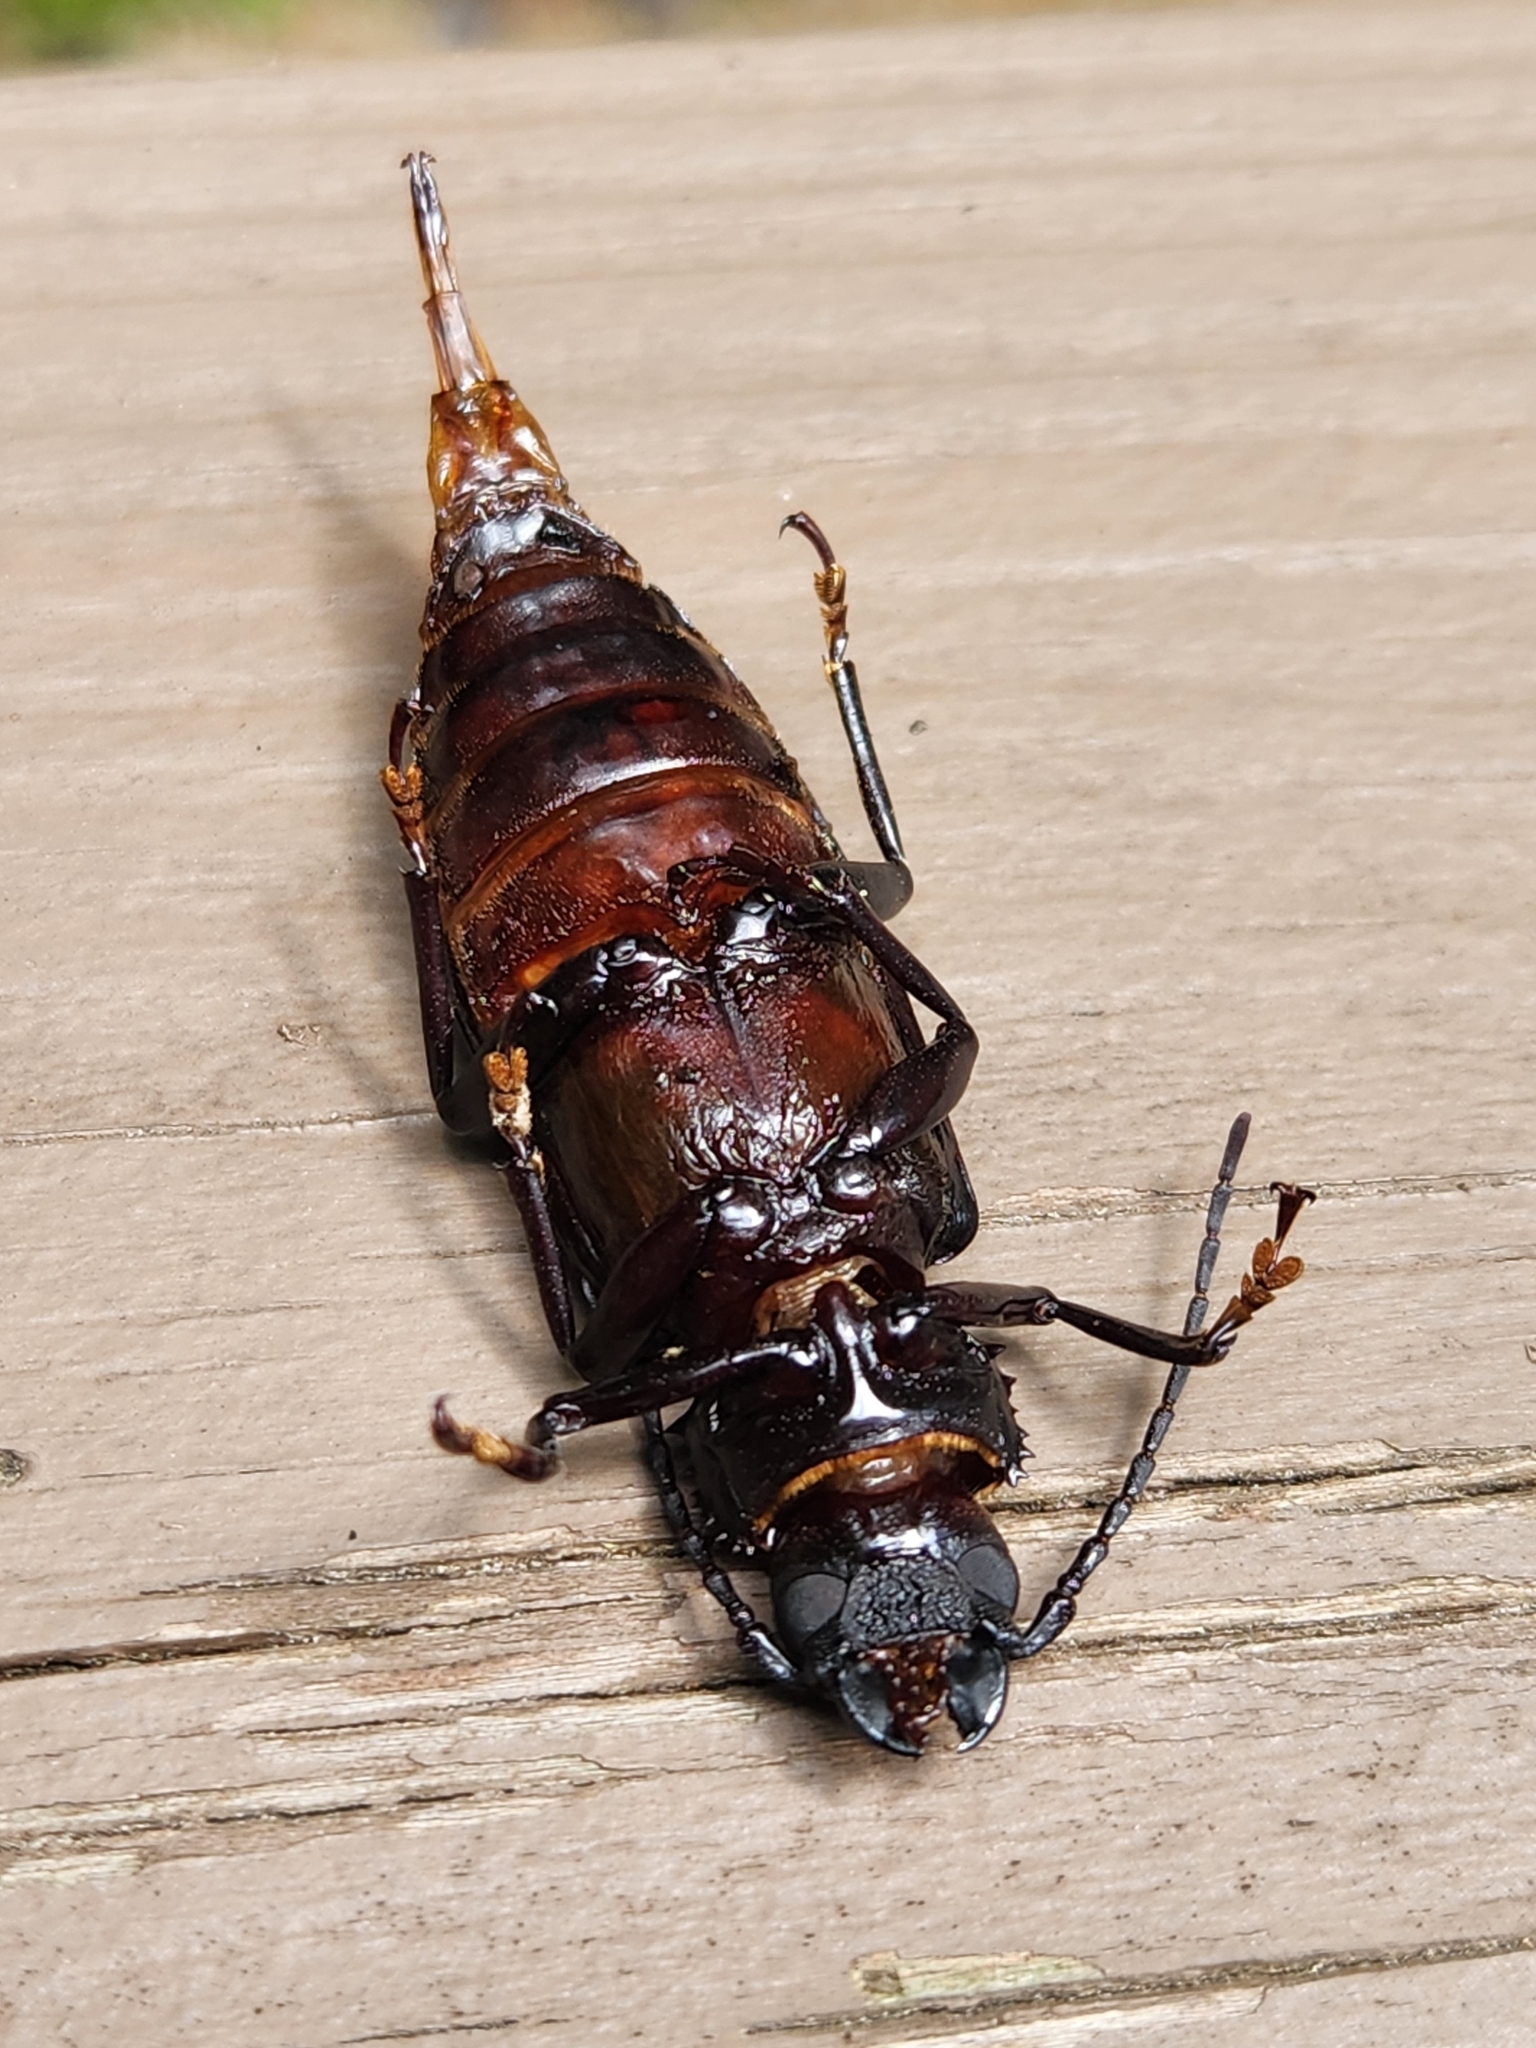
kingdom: Animalia
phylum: Arthropoda
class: Insecta
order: Coleoptera
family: Cerambycidae
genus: Prionus
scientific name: Prionus laticollis
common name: Broad necked prionus
